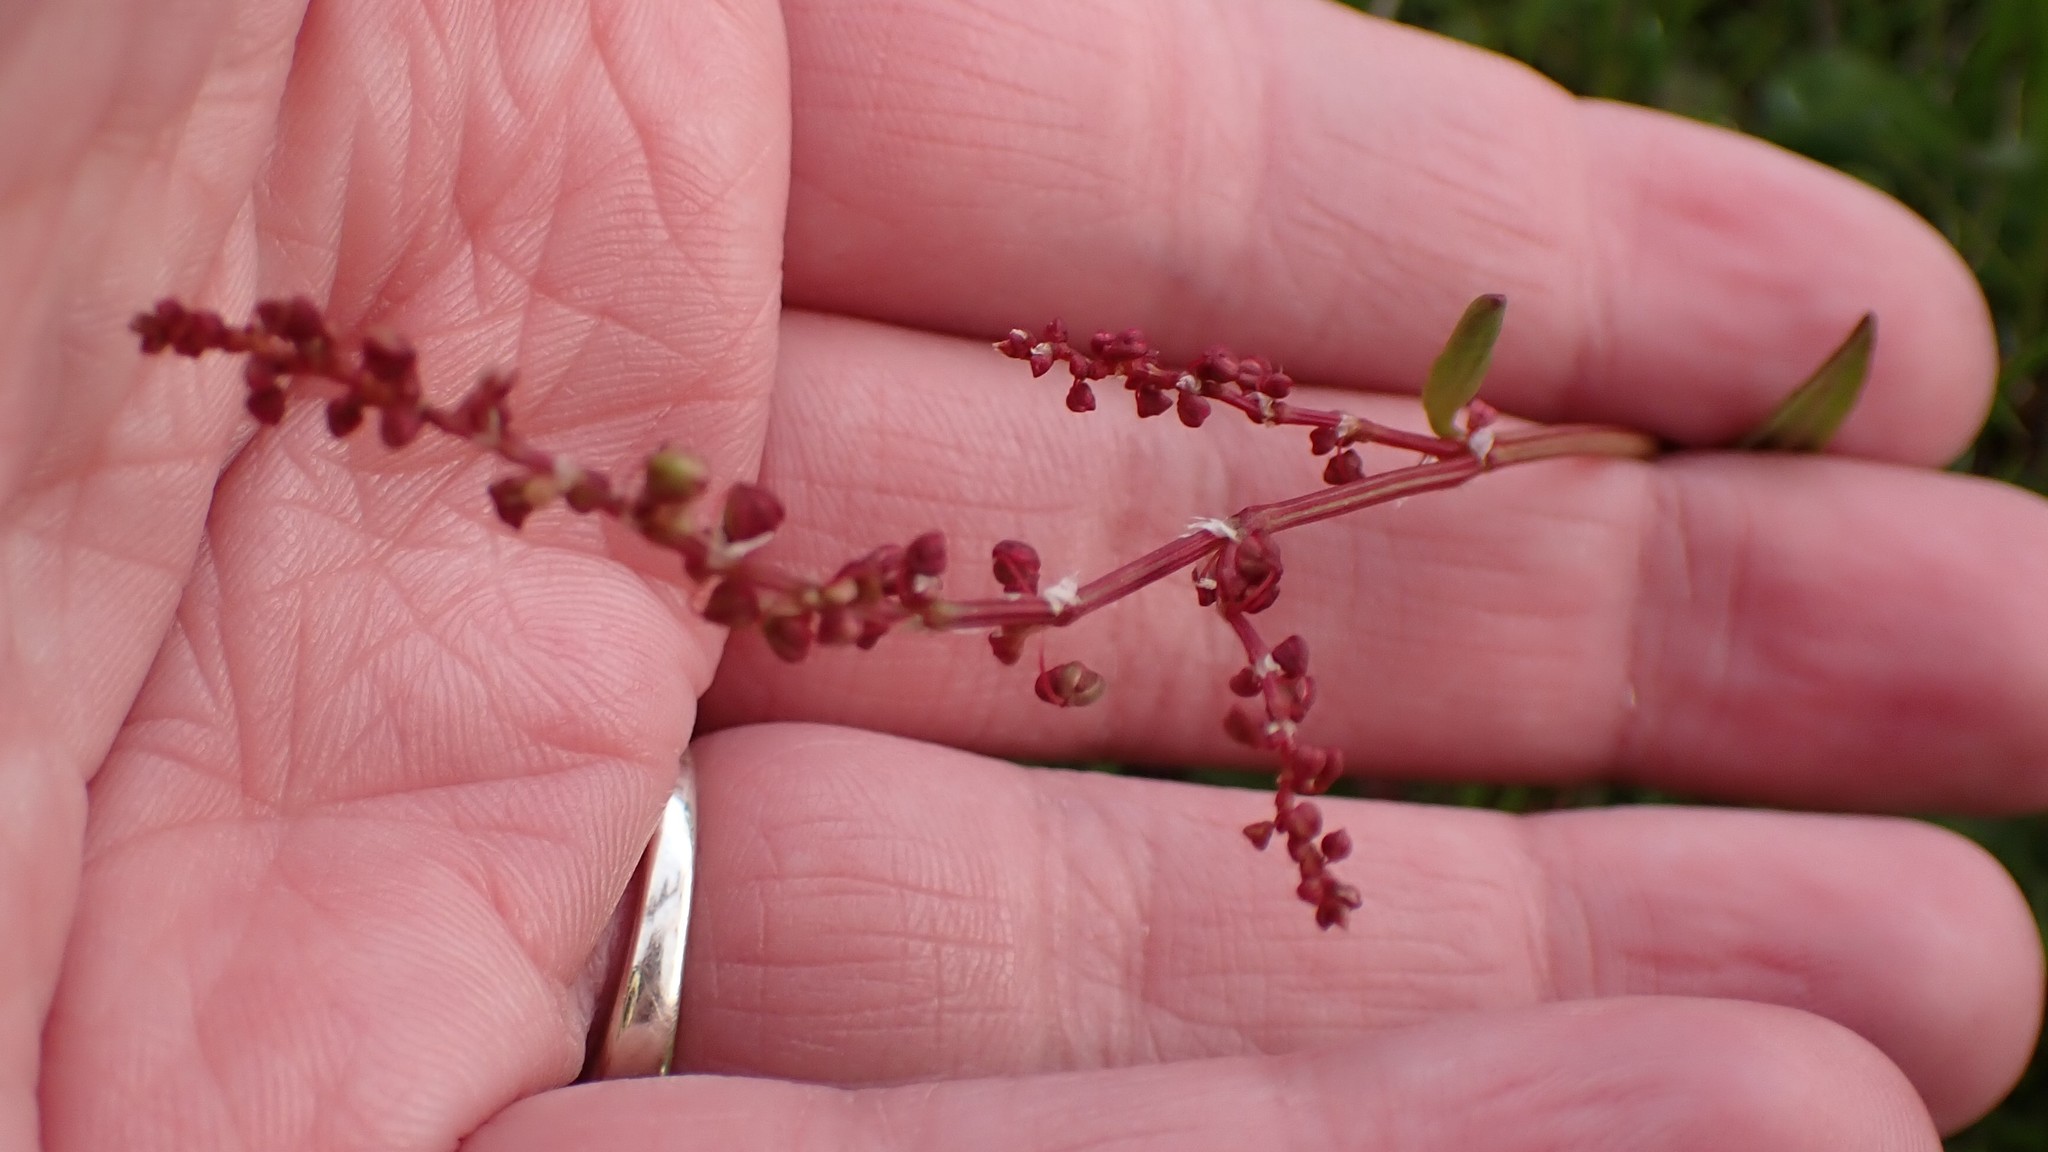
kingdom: Plantae
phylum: Tracheophyta
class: Magnoliopsida
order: Caryophyllales
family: Polygonaceae
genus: Rumex
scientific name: Rumex acetosella
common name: Common sheep sorrel
